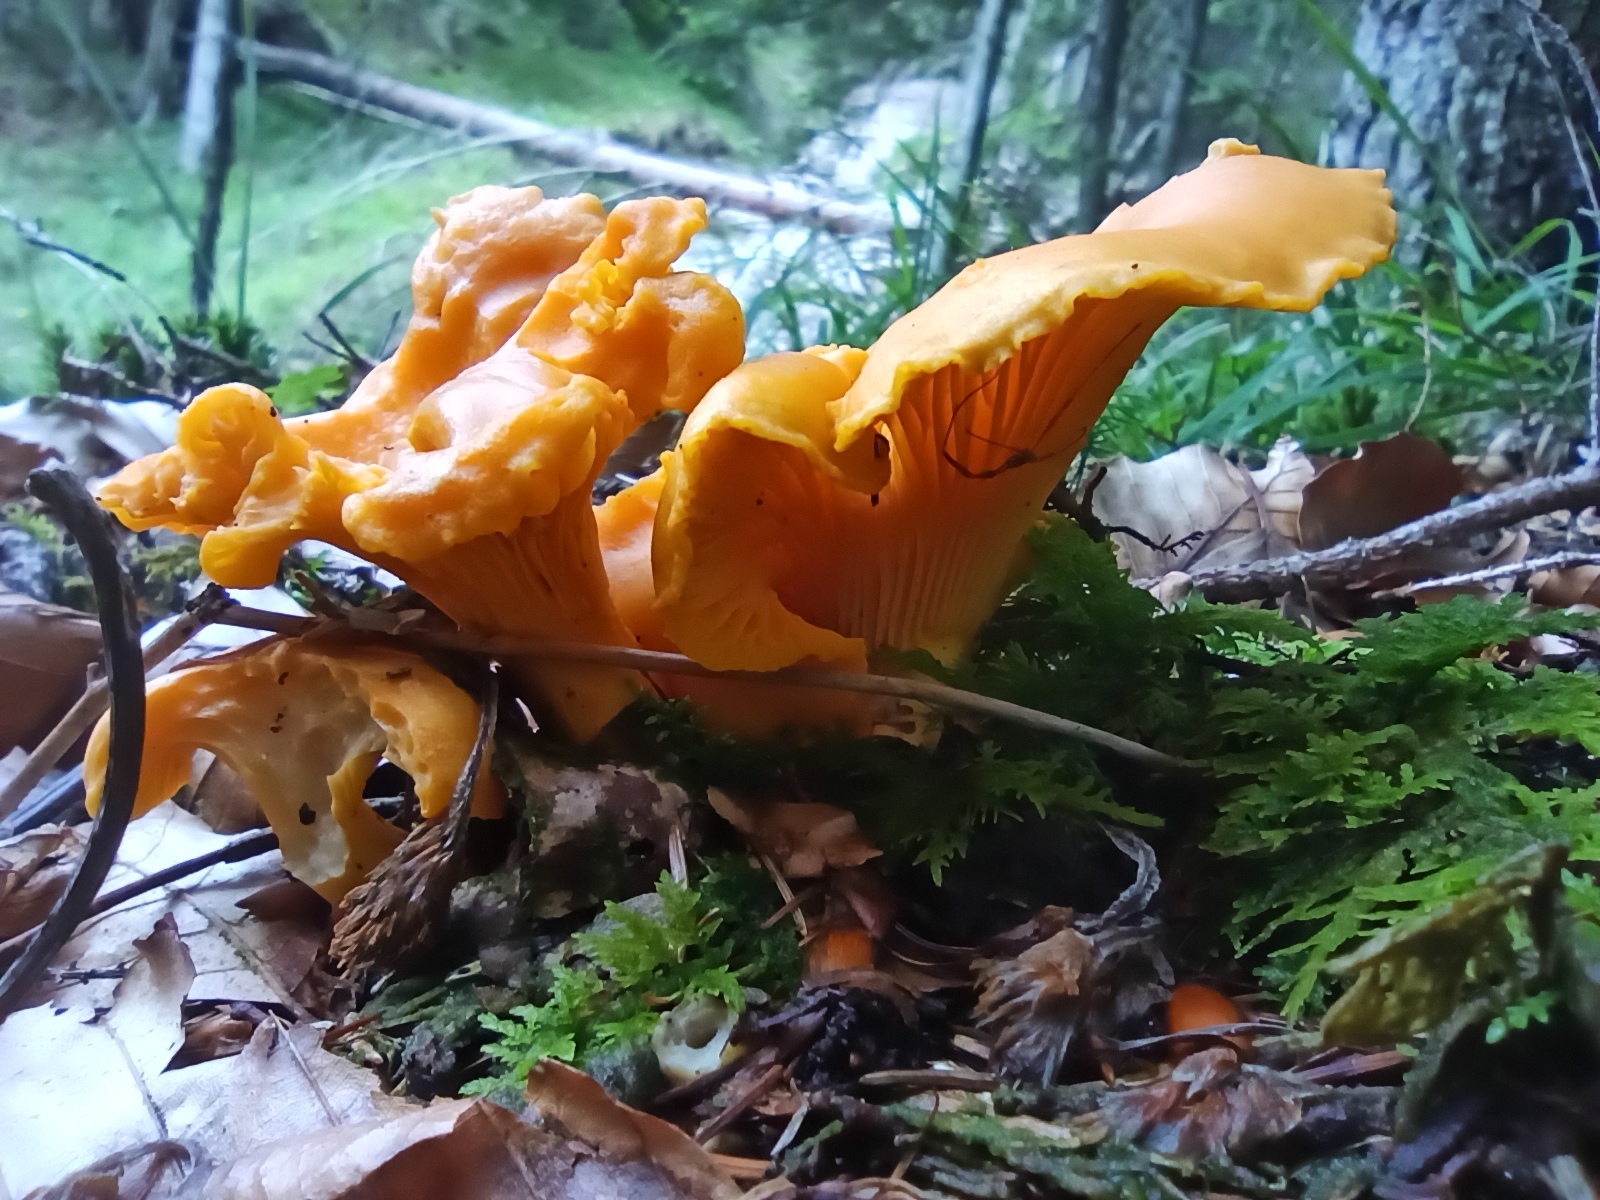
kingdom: Fungi
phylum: Basidiomycota
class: Agaricomycetes
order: Cantharellales
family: Hydnaceae
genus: Cantharellus
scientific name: Cantharellus cibarius
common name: Chanterelle
